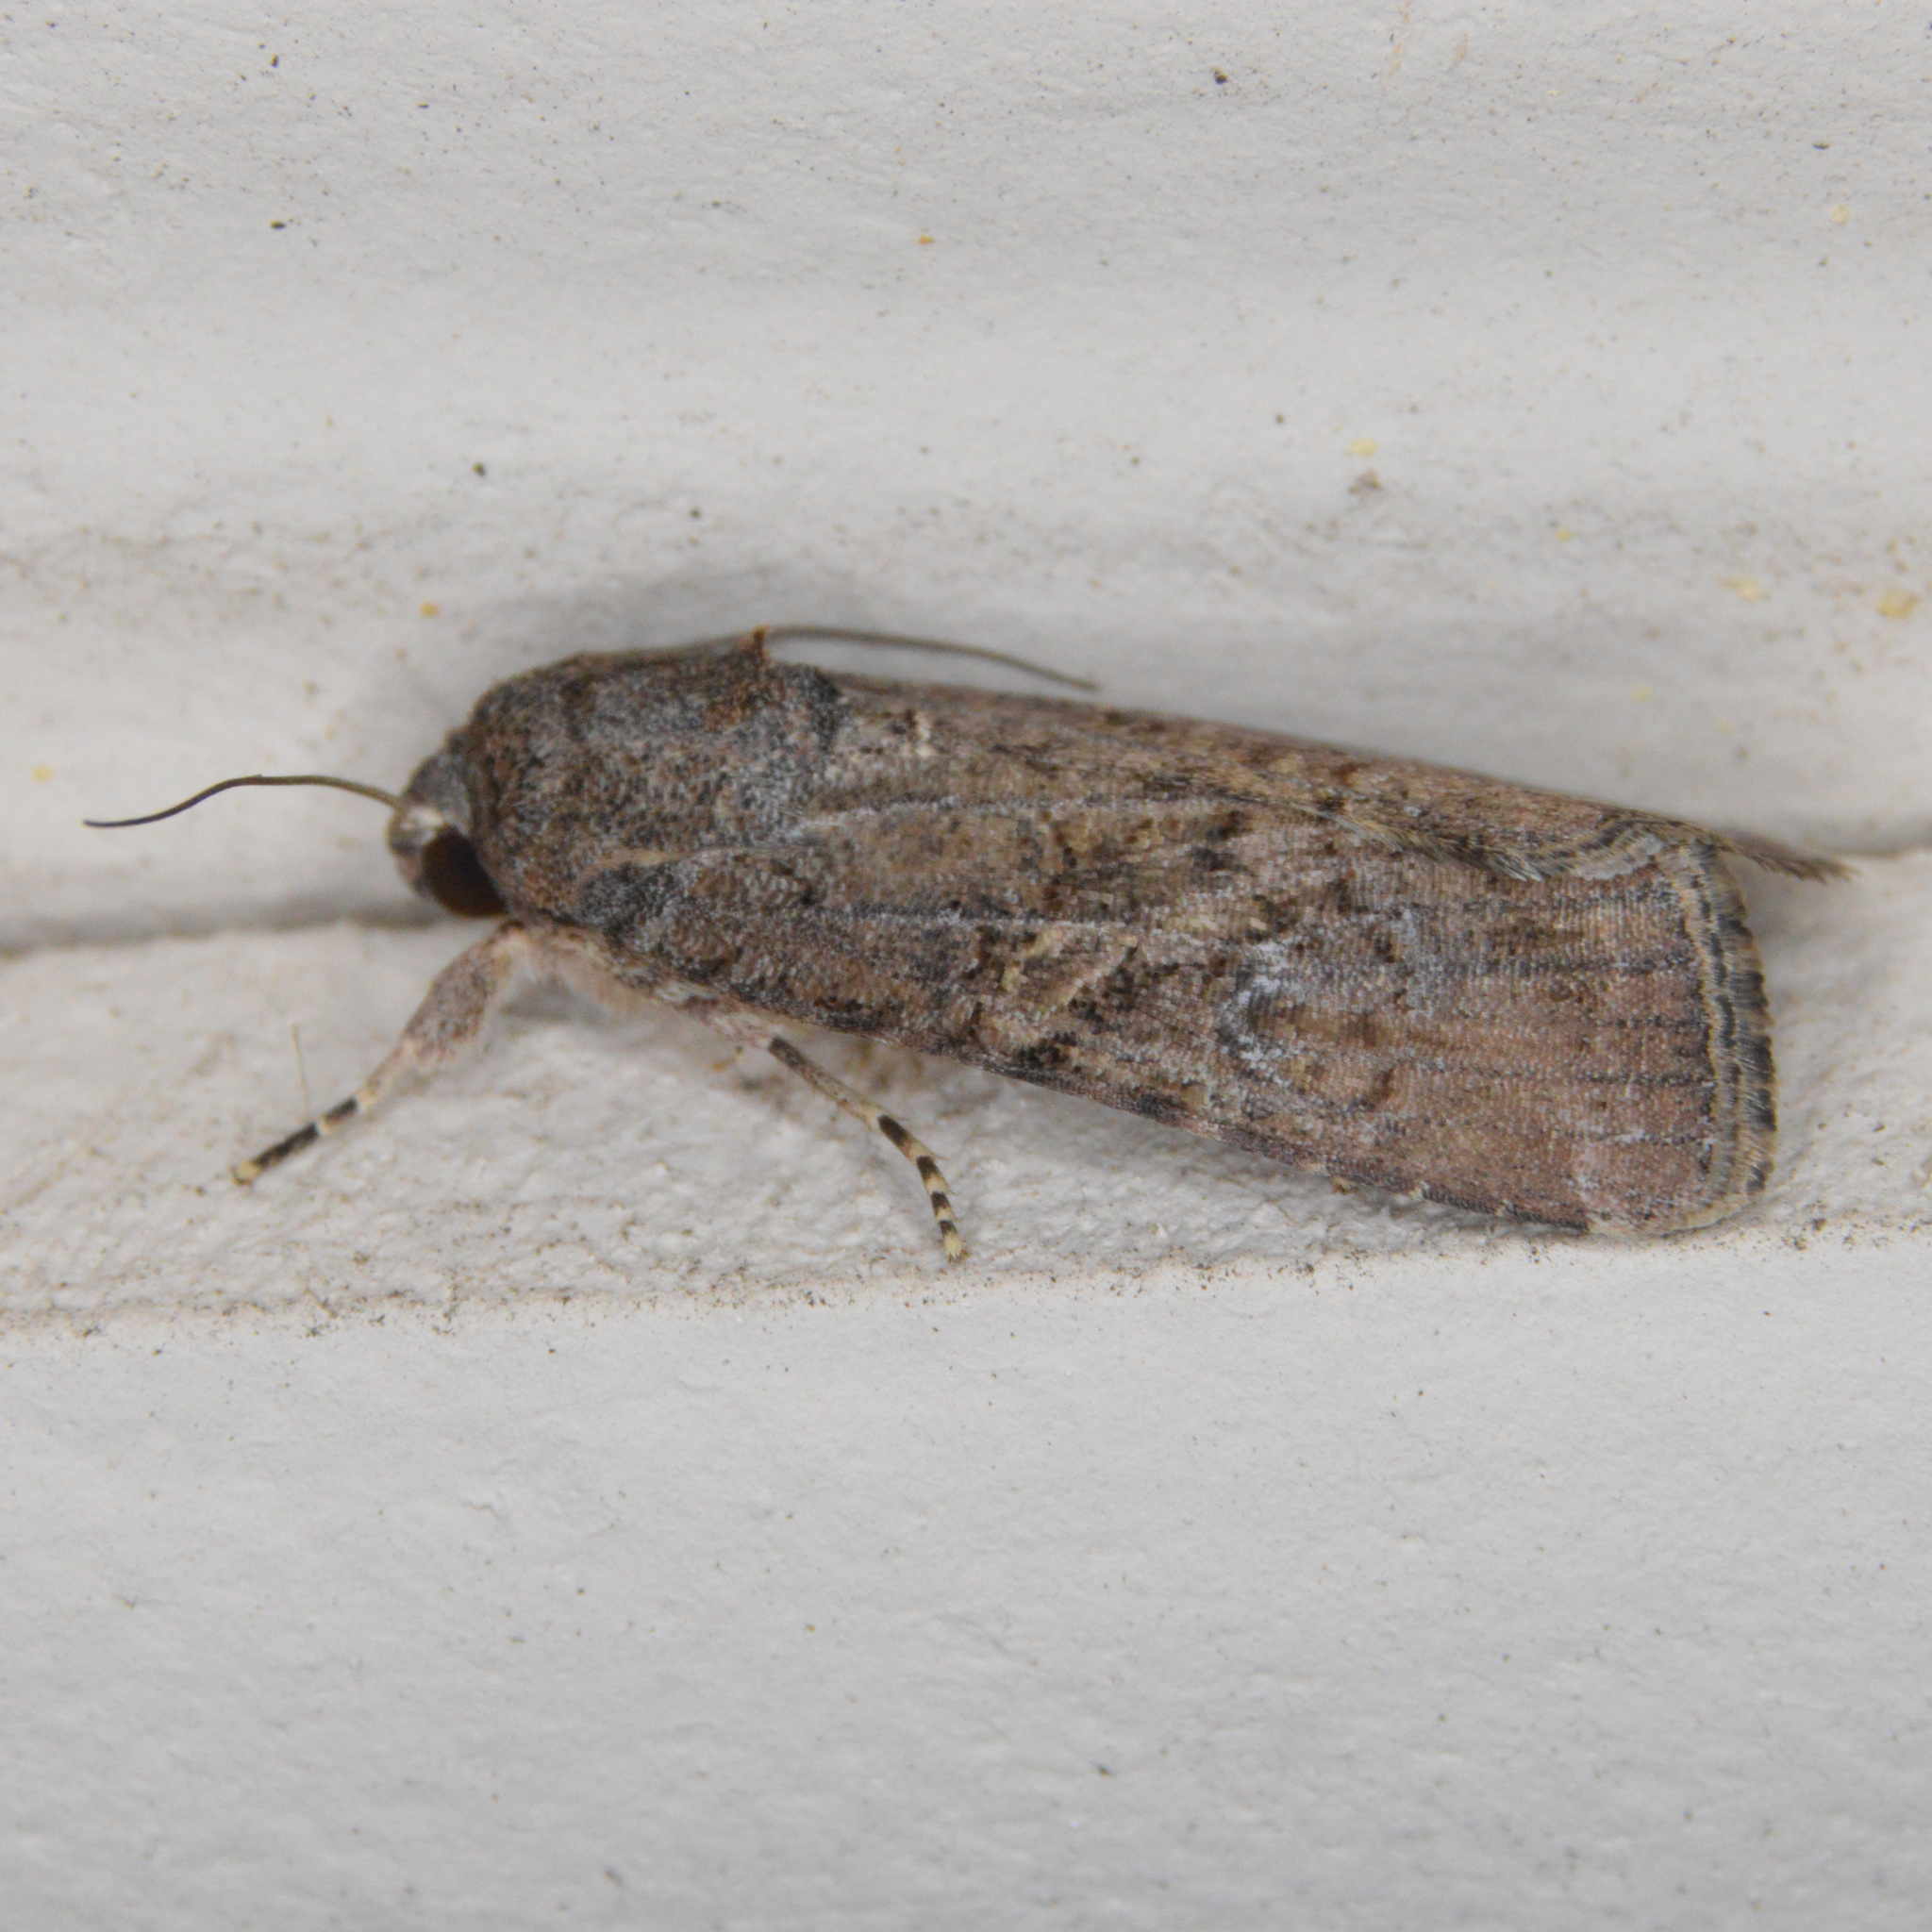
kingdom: Animalia
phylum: Arthropoda
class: Insecta
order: Lepidoptera
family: Noctuidae
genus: Spodoptera
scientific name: Spodoptera frugiperda
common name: Fall armyworm
